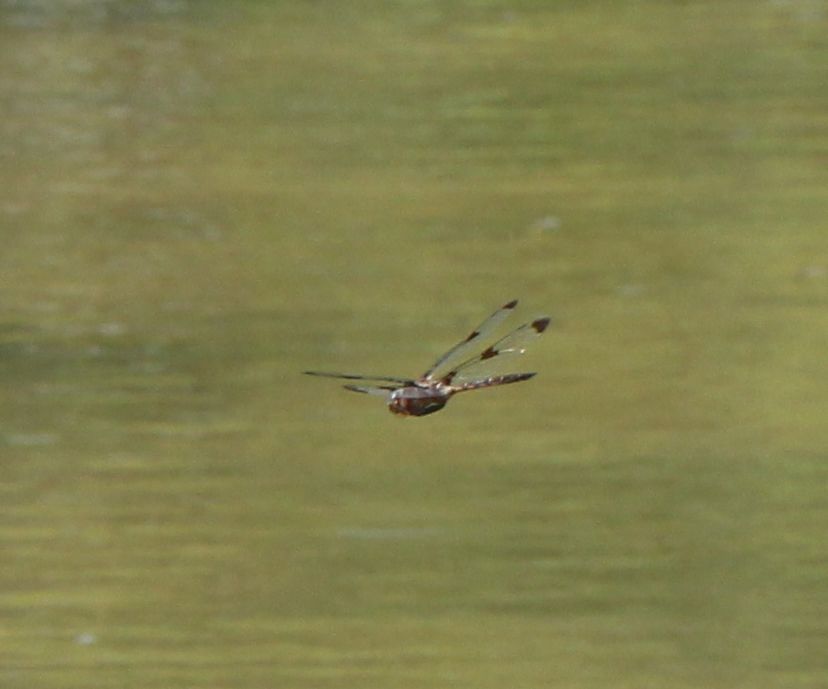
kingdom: Animalia
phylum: Arthropoda
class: Insecta
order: Odonata
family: Corduliidae
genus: Epitheca
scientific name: Epitheca princeps
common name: Prince baskettail
